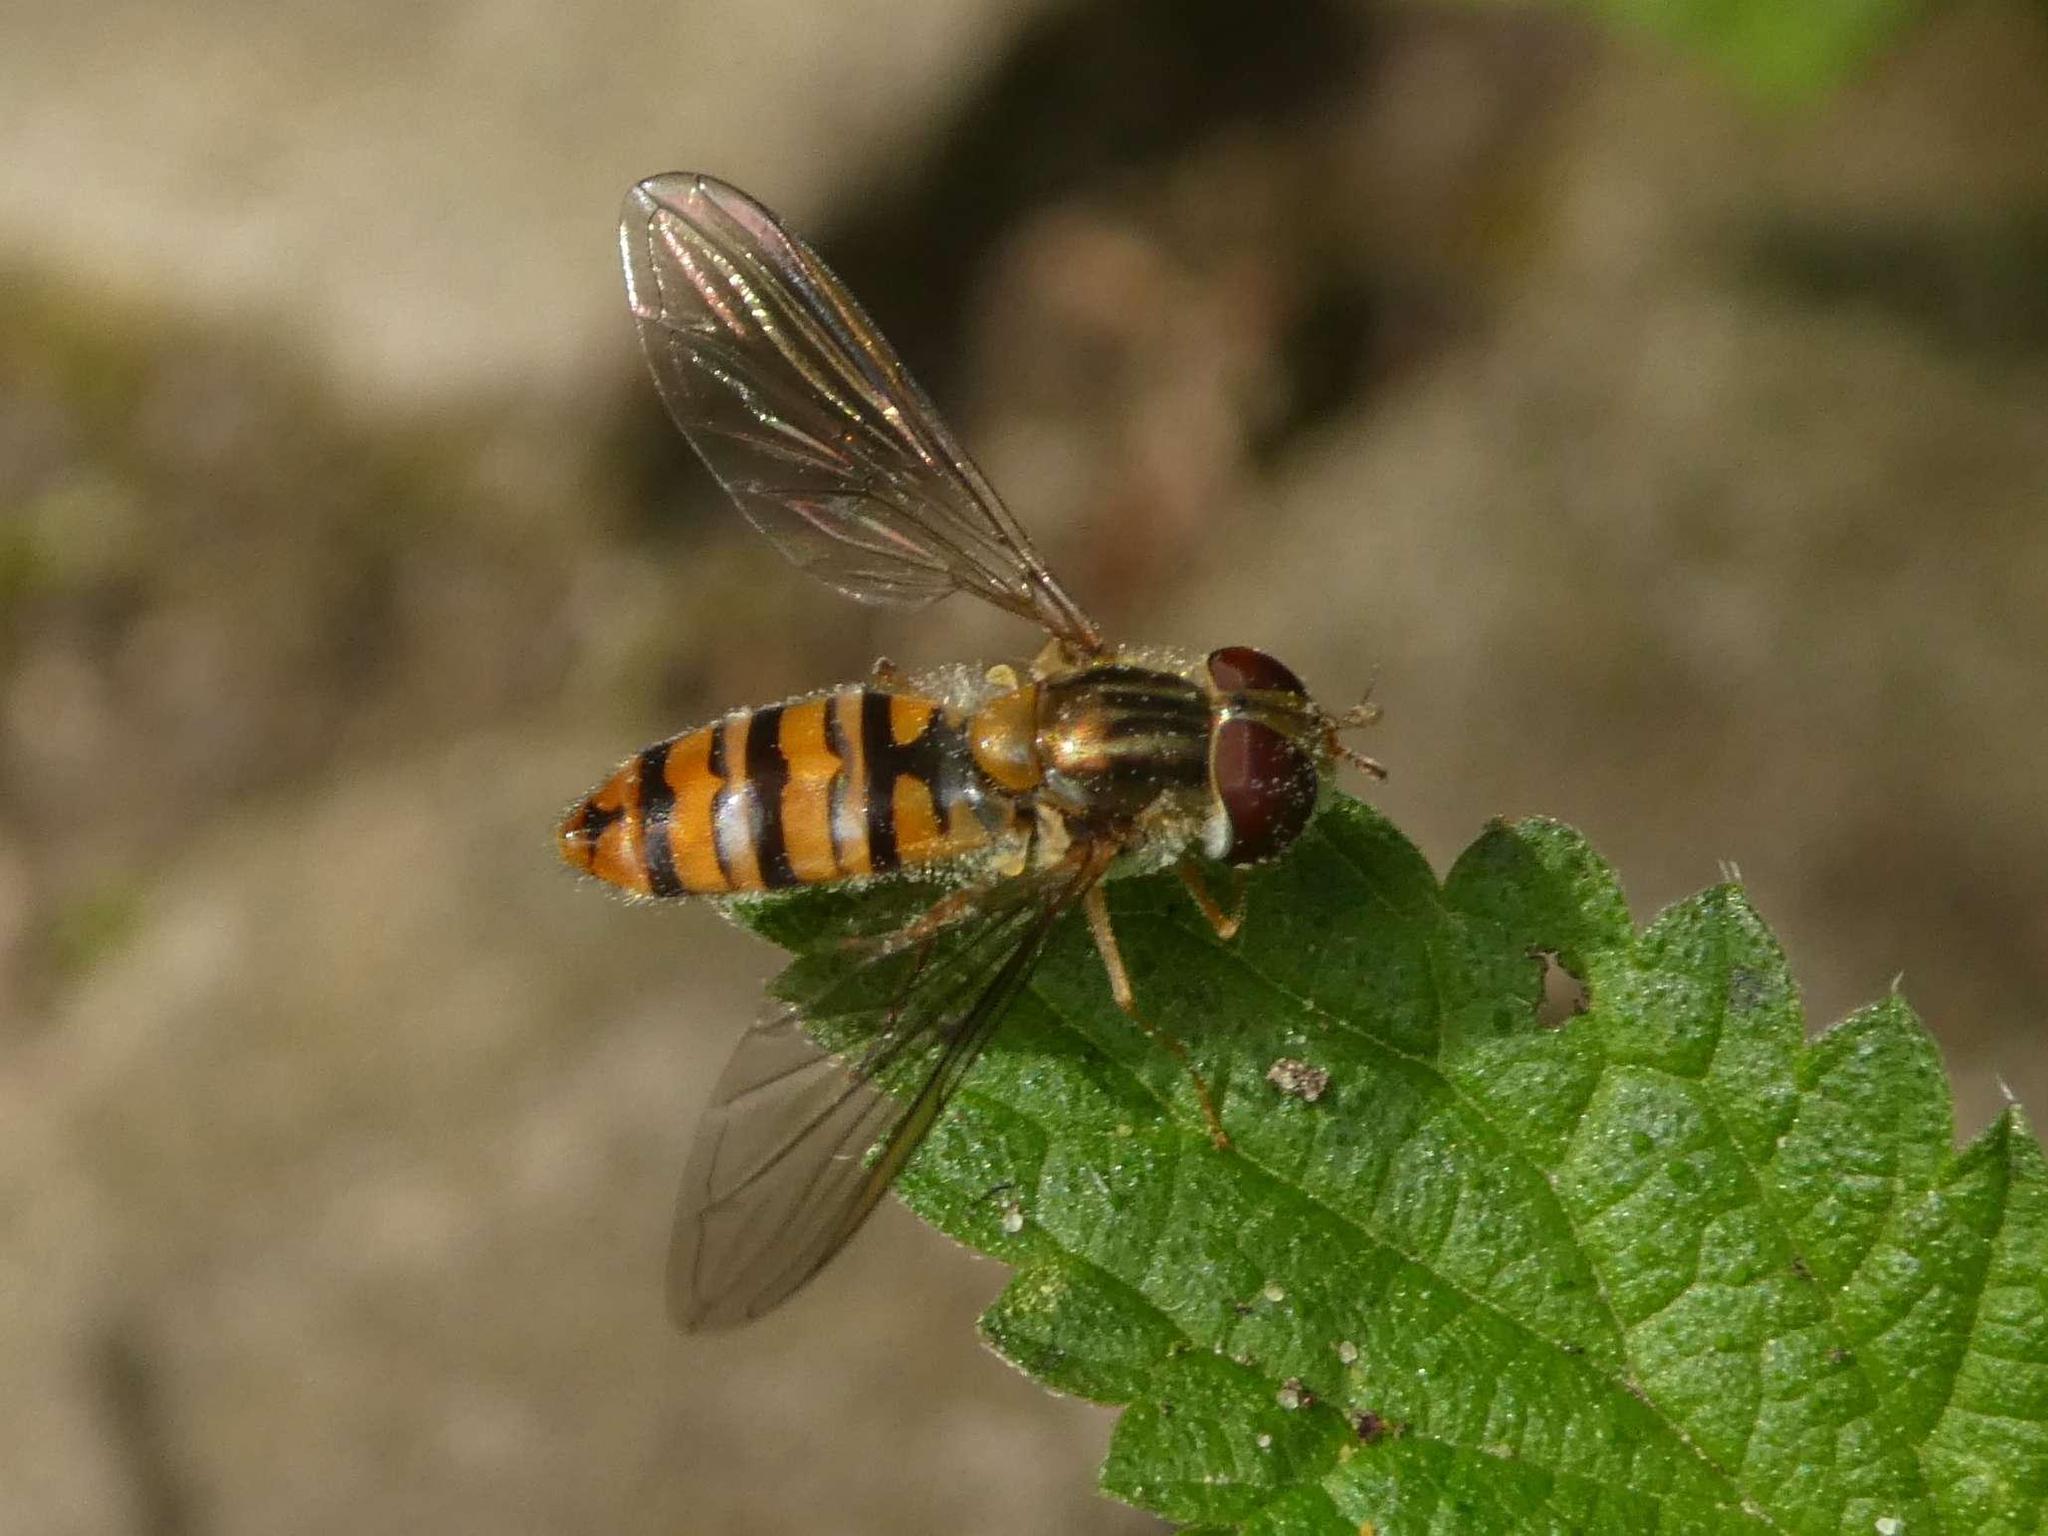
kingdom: Animalia
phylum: Arthropoda
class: Insecta
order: Diptera
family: Syrphidae
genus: Episyrphus
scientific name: Episyrphus balteatus
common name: Marmalade hoverfly
